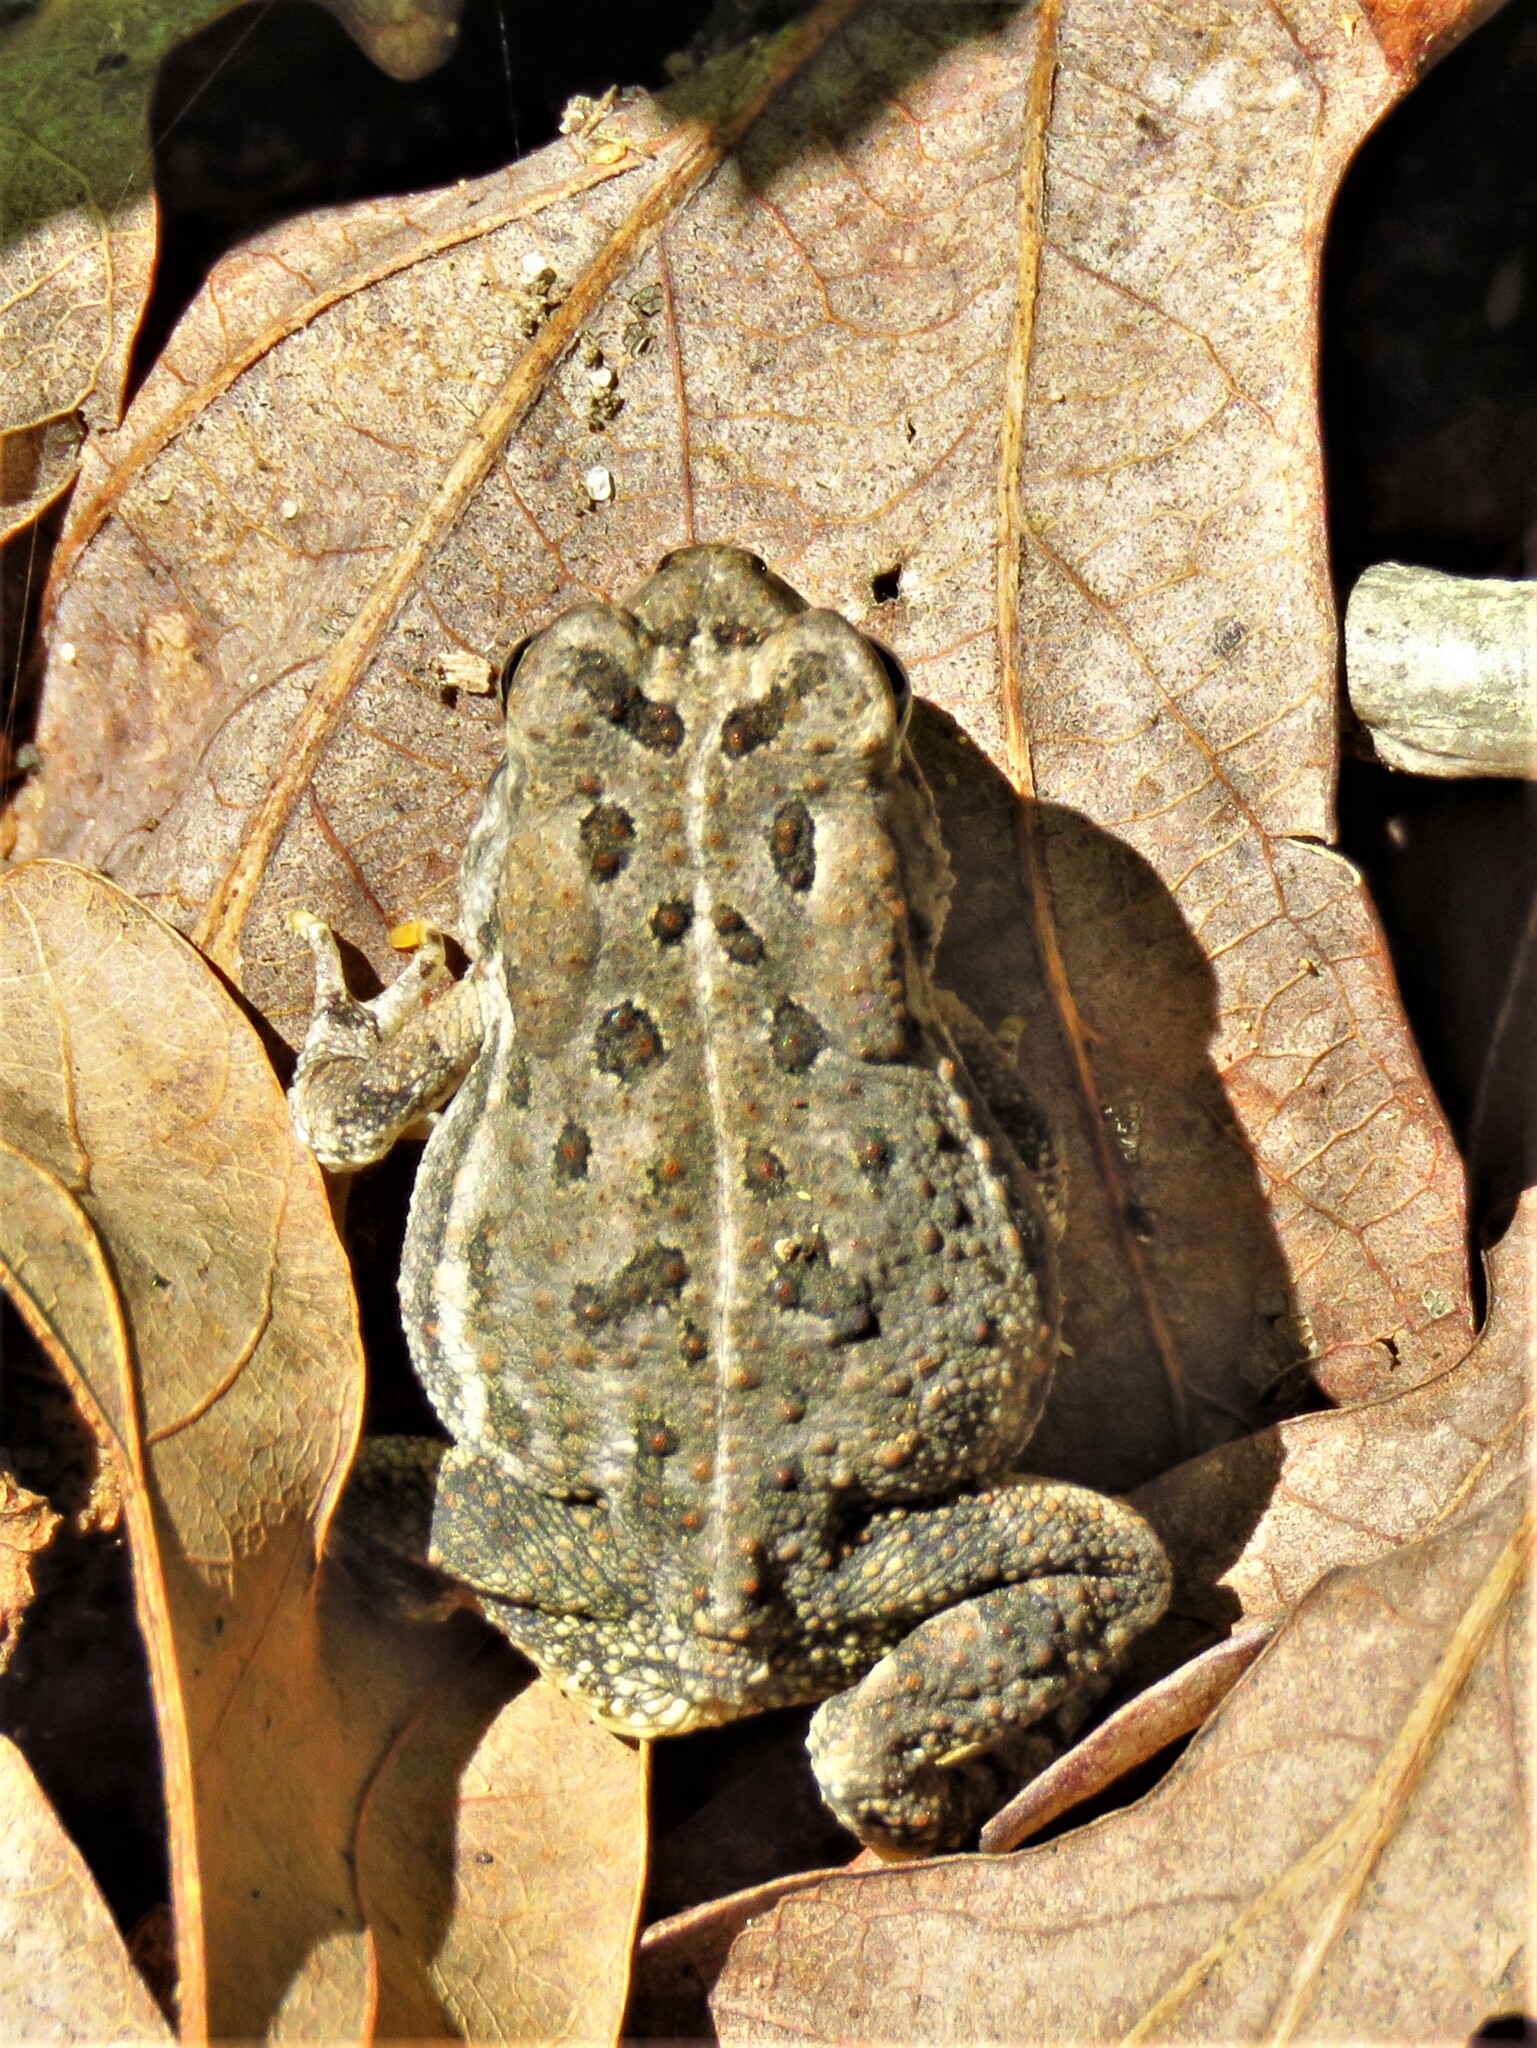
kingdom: Animalia
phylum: Chordata
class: Amphibia
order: Anura
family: Bufonidae
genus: Anaxyrus
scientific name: Anaxyrus fowleri
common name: Fowler's toad
